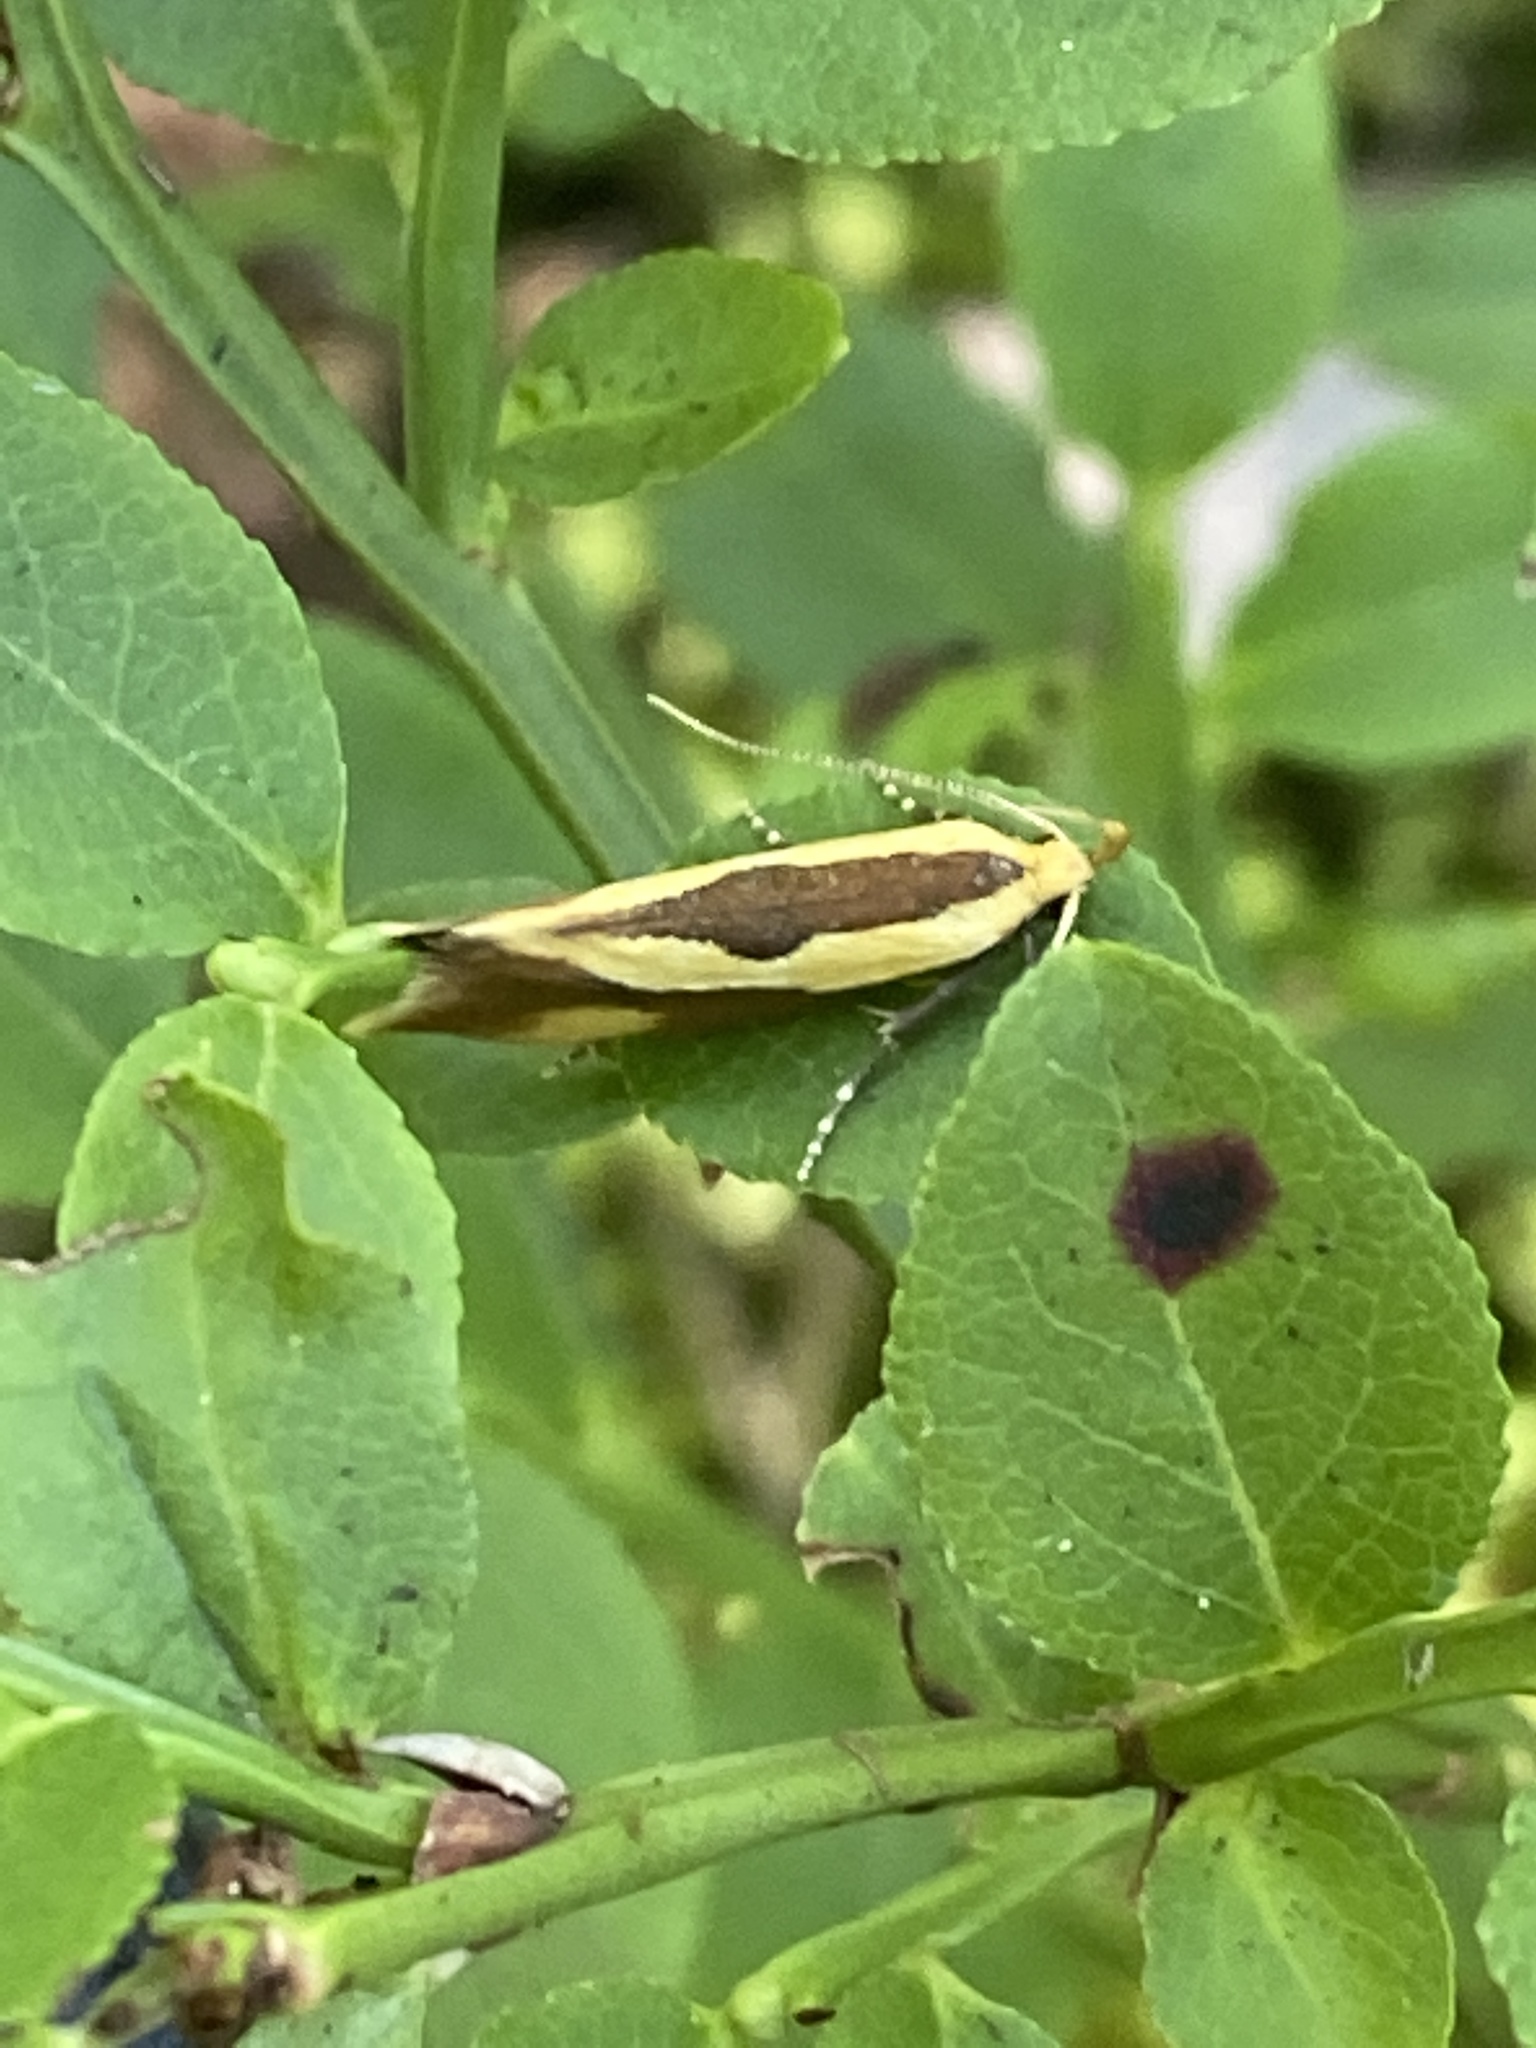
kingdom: Animalia
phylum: Arthropoda
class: Insecta
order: Lepidoptera
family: Oecophoridae
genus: Harpella
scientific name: Harpella forficella
